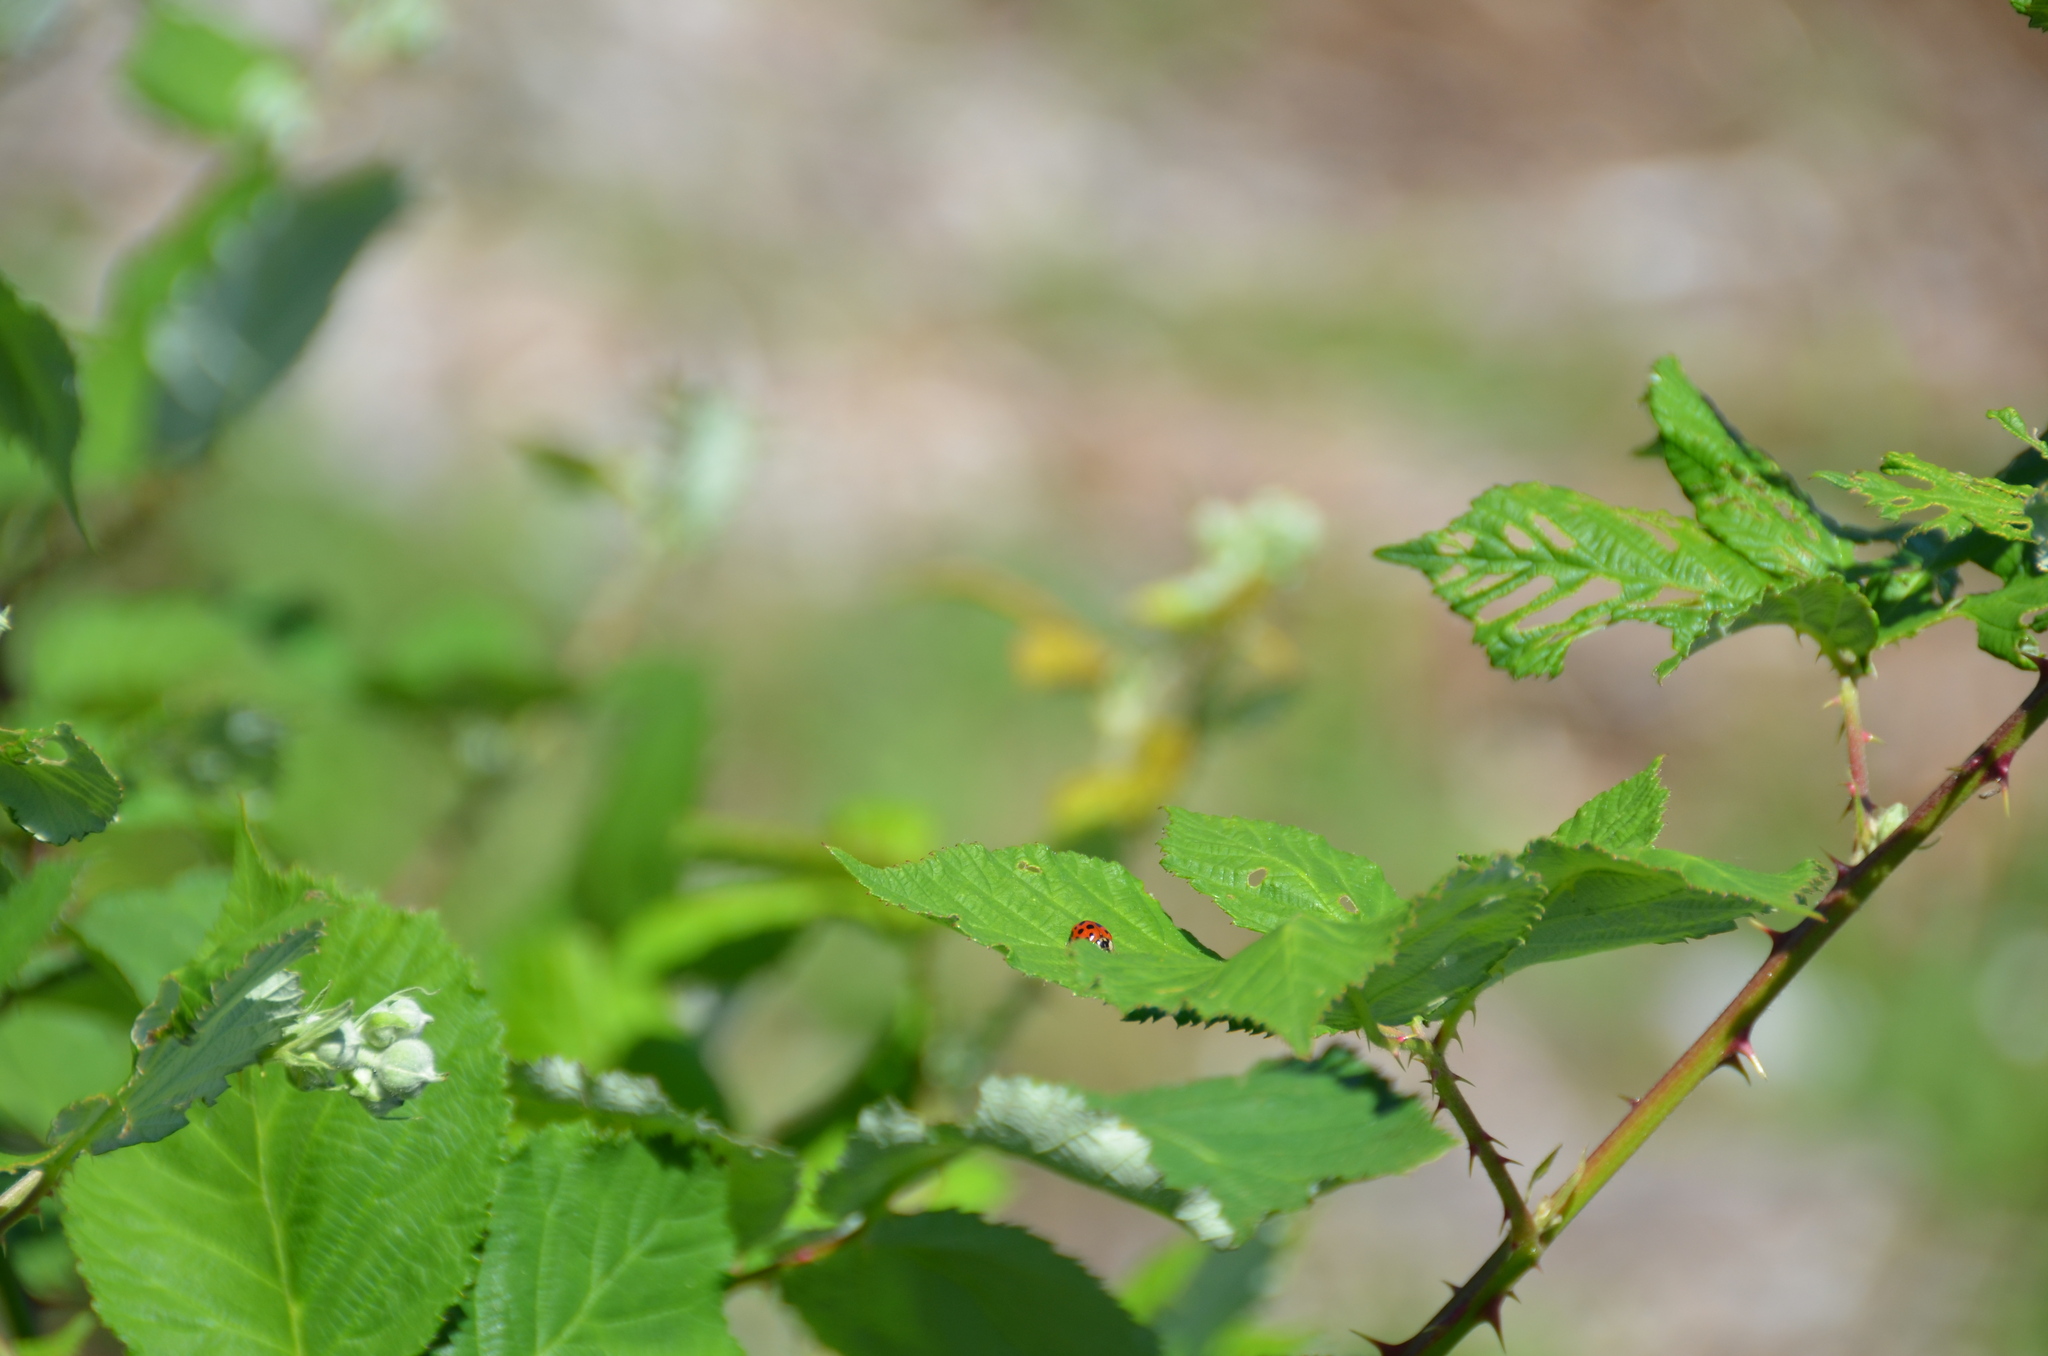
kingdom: Animalia
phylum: Arthropoda
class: Insecta
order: Coleoptera
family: Coccinellidae
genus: Harmonia
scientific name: Harmonia axyridis
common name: Harlequin ladybird
